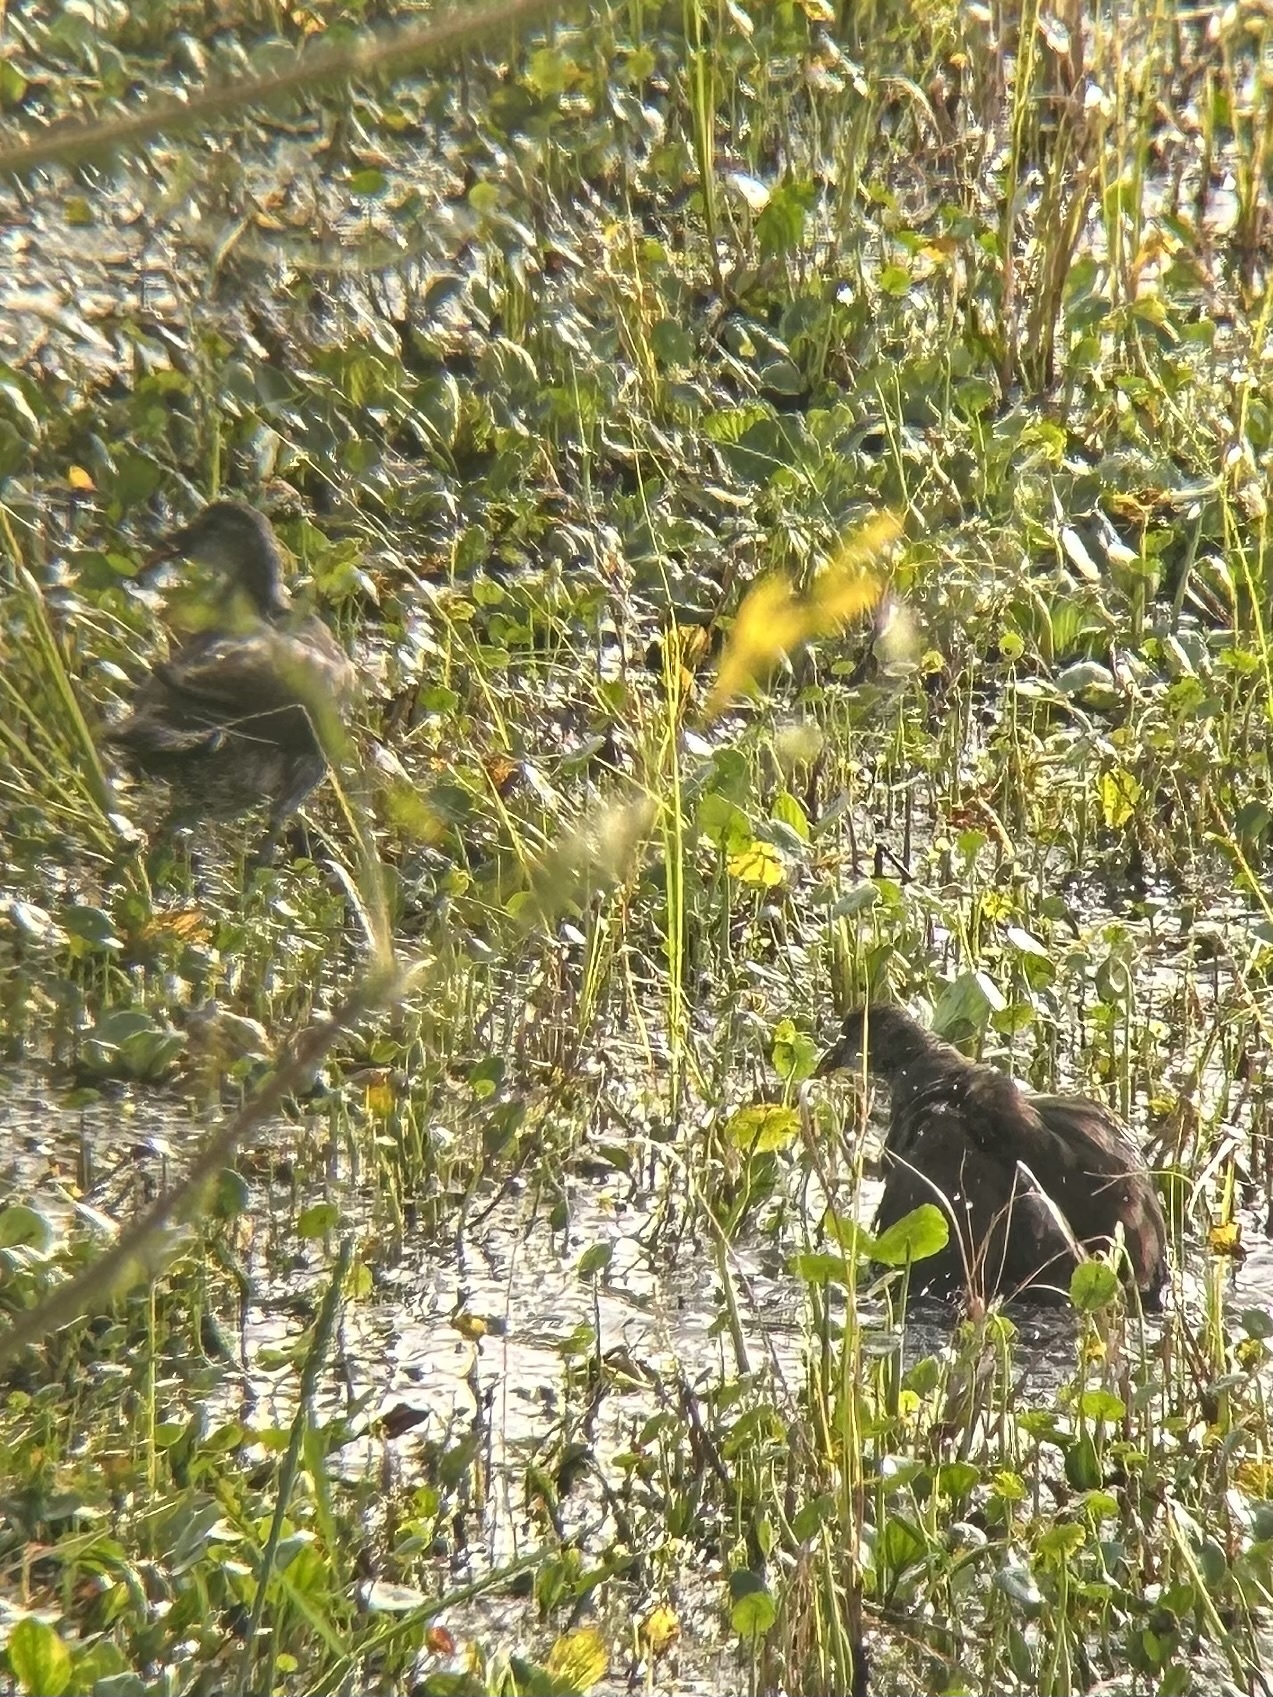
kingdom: Animalia
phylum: Chordata
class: Aves
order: Gruiformes
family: Rallidae
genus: Porphyrio
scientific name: Porphyrio martinica
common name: Purple gallinule
